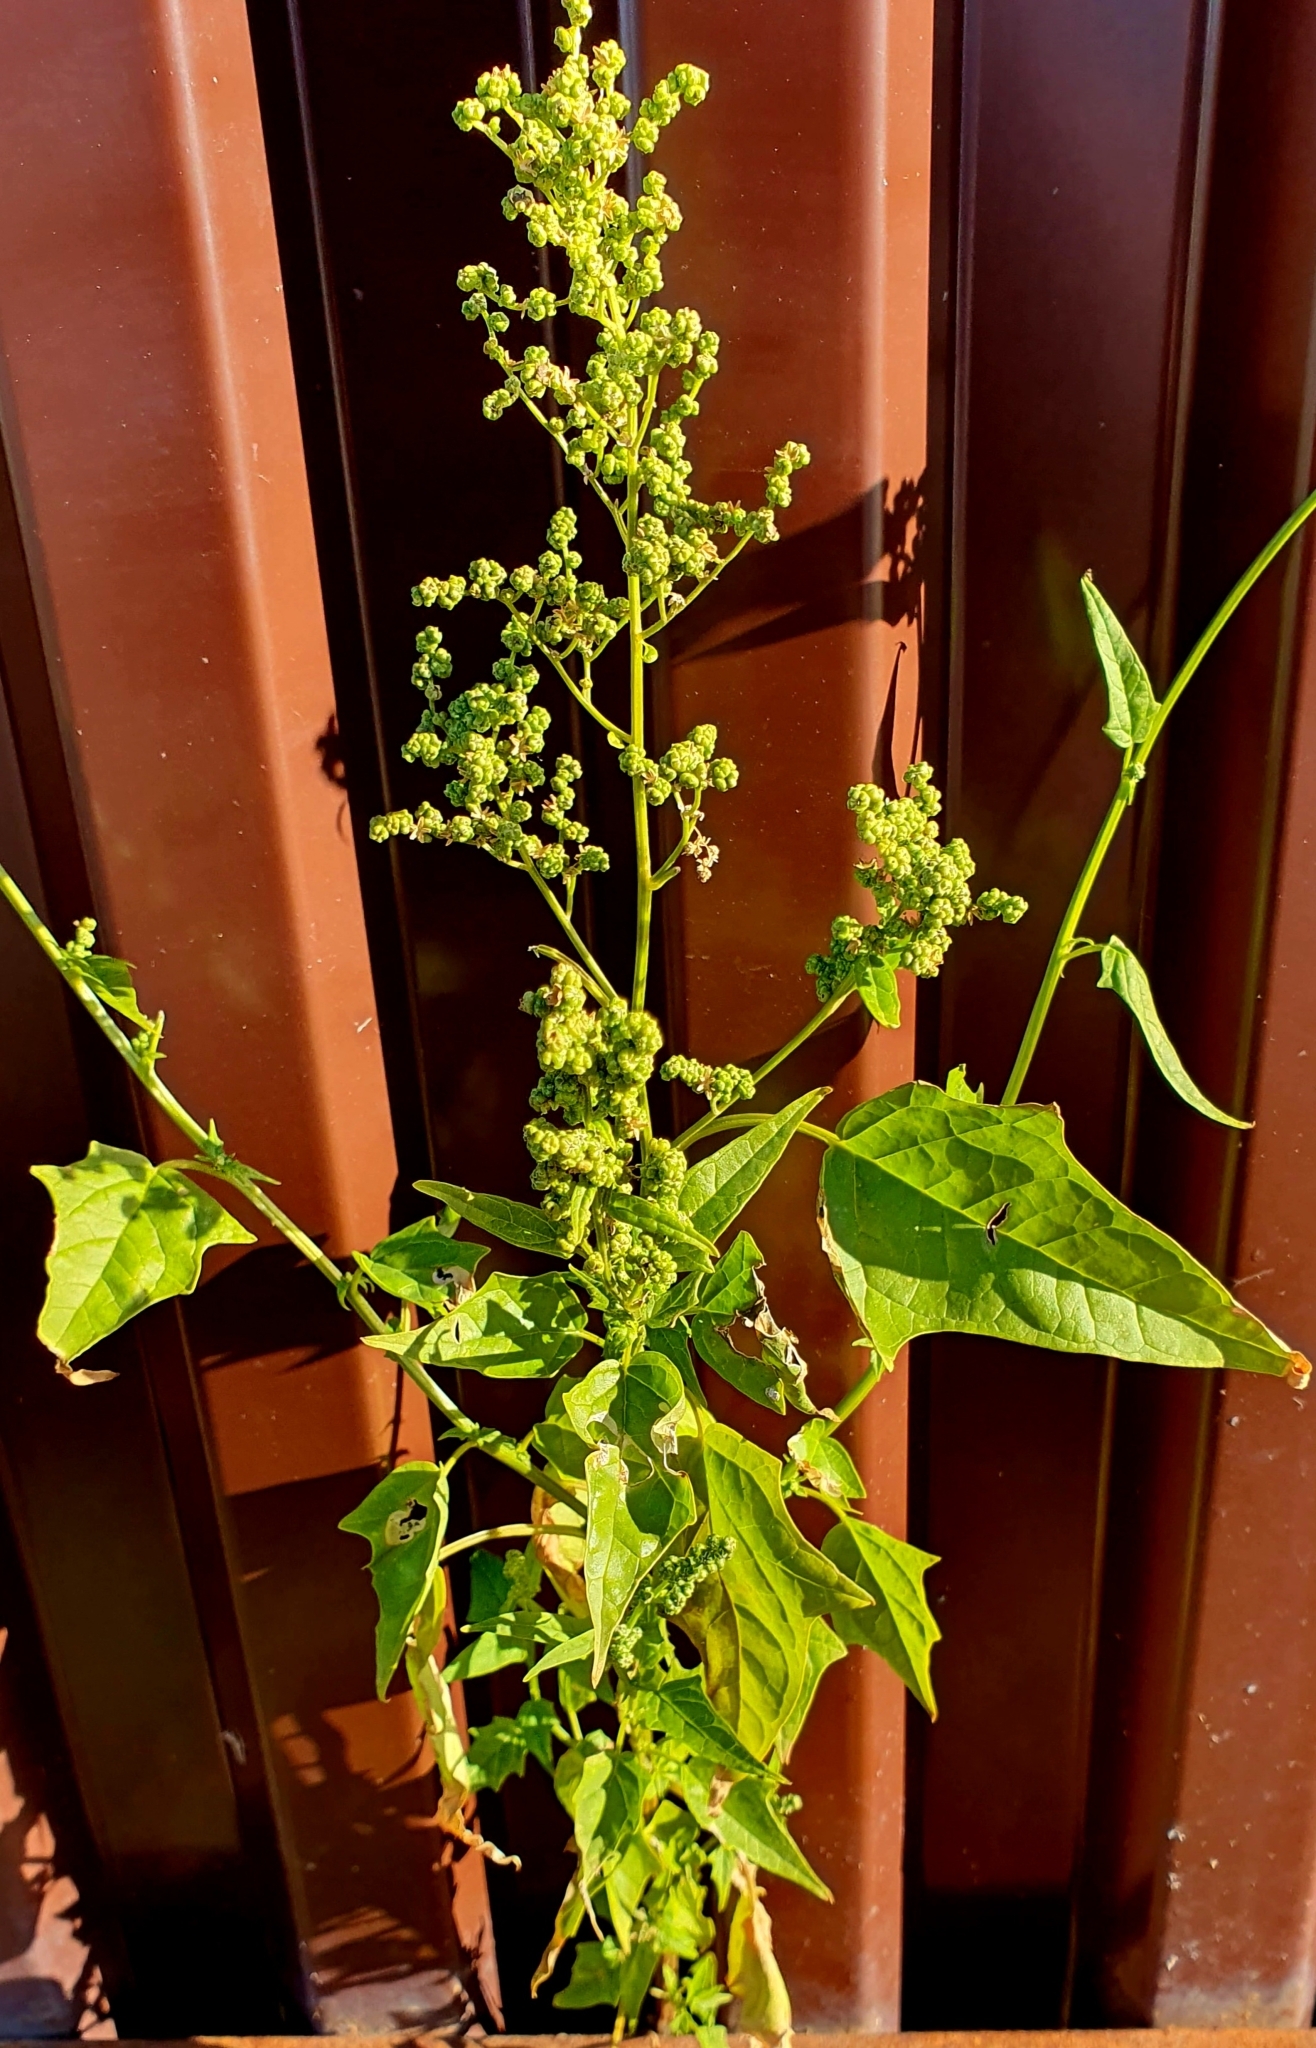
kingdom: Plantae
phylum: Tracheophyta
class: Magnoliopsida
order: Caryophyllales
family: Amaranthaceae
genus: Chenopodiastrum
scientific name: Chenopodiastrum hybridum
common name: Mapleleaf goosefoot
